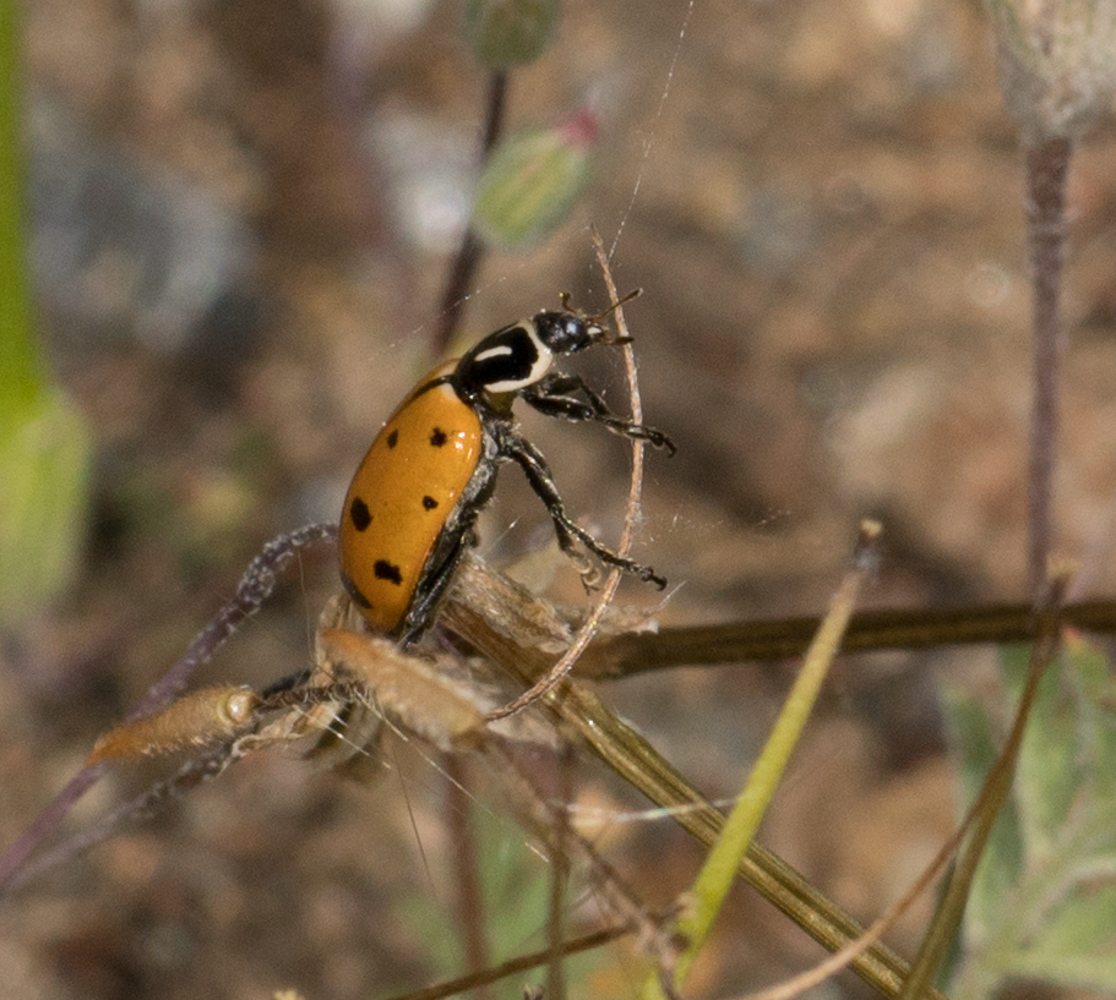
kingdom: Animalia
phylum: Arthropoda
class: Insecta
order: Coleoptera
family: Coccinellidae
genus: Hippodamia
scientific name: Hippodamia convergens
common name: Convergent lady beetle
